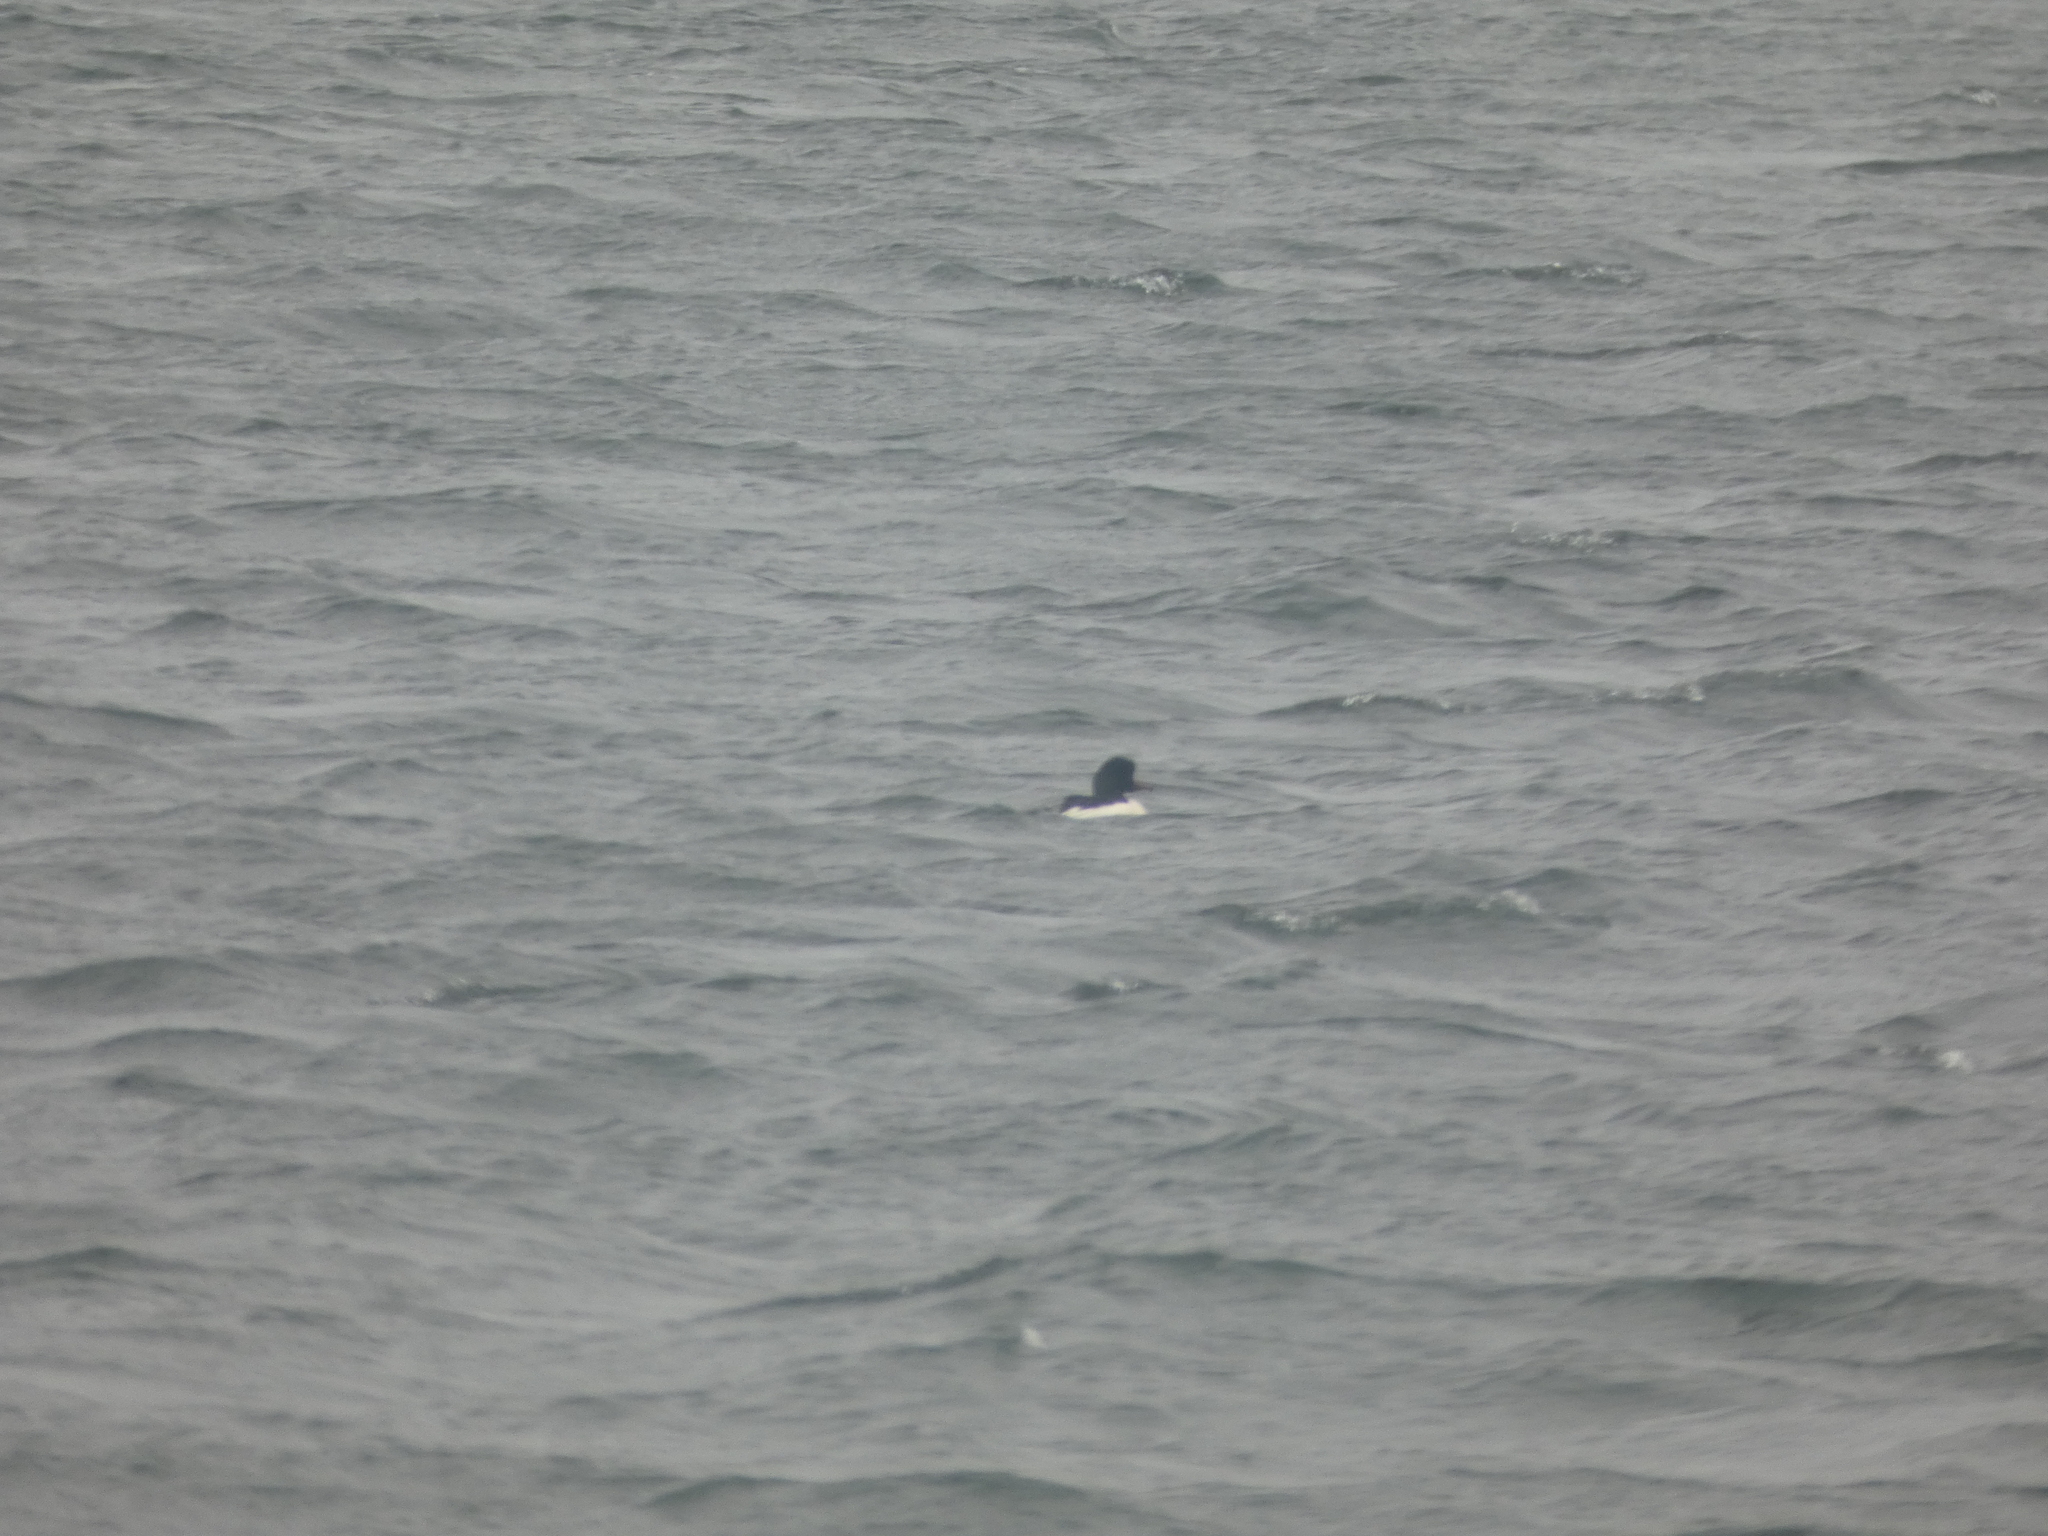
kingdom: Animalia
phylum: Chordata
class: Aves
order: Anseriformes
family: Anatidae
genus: Mergus
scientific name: Mergus merganser
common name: Common merganser
